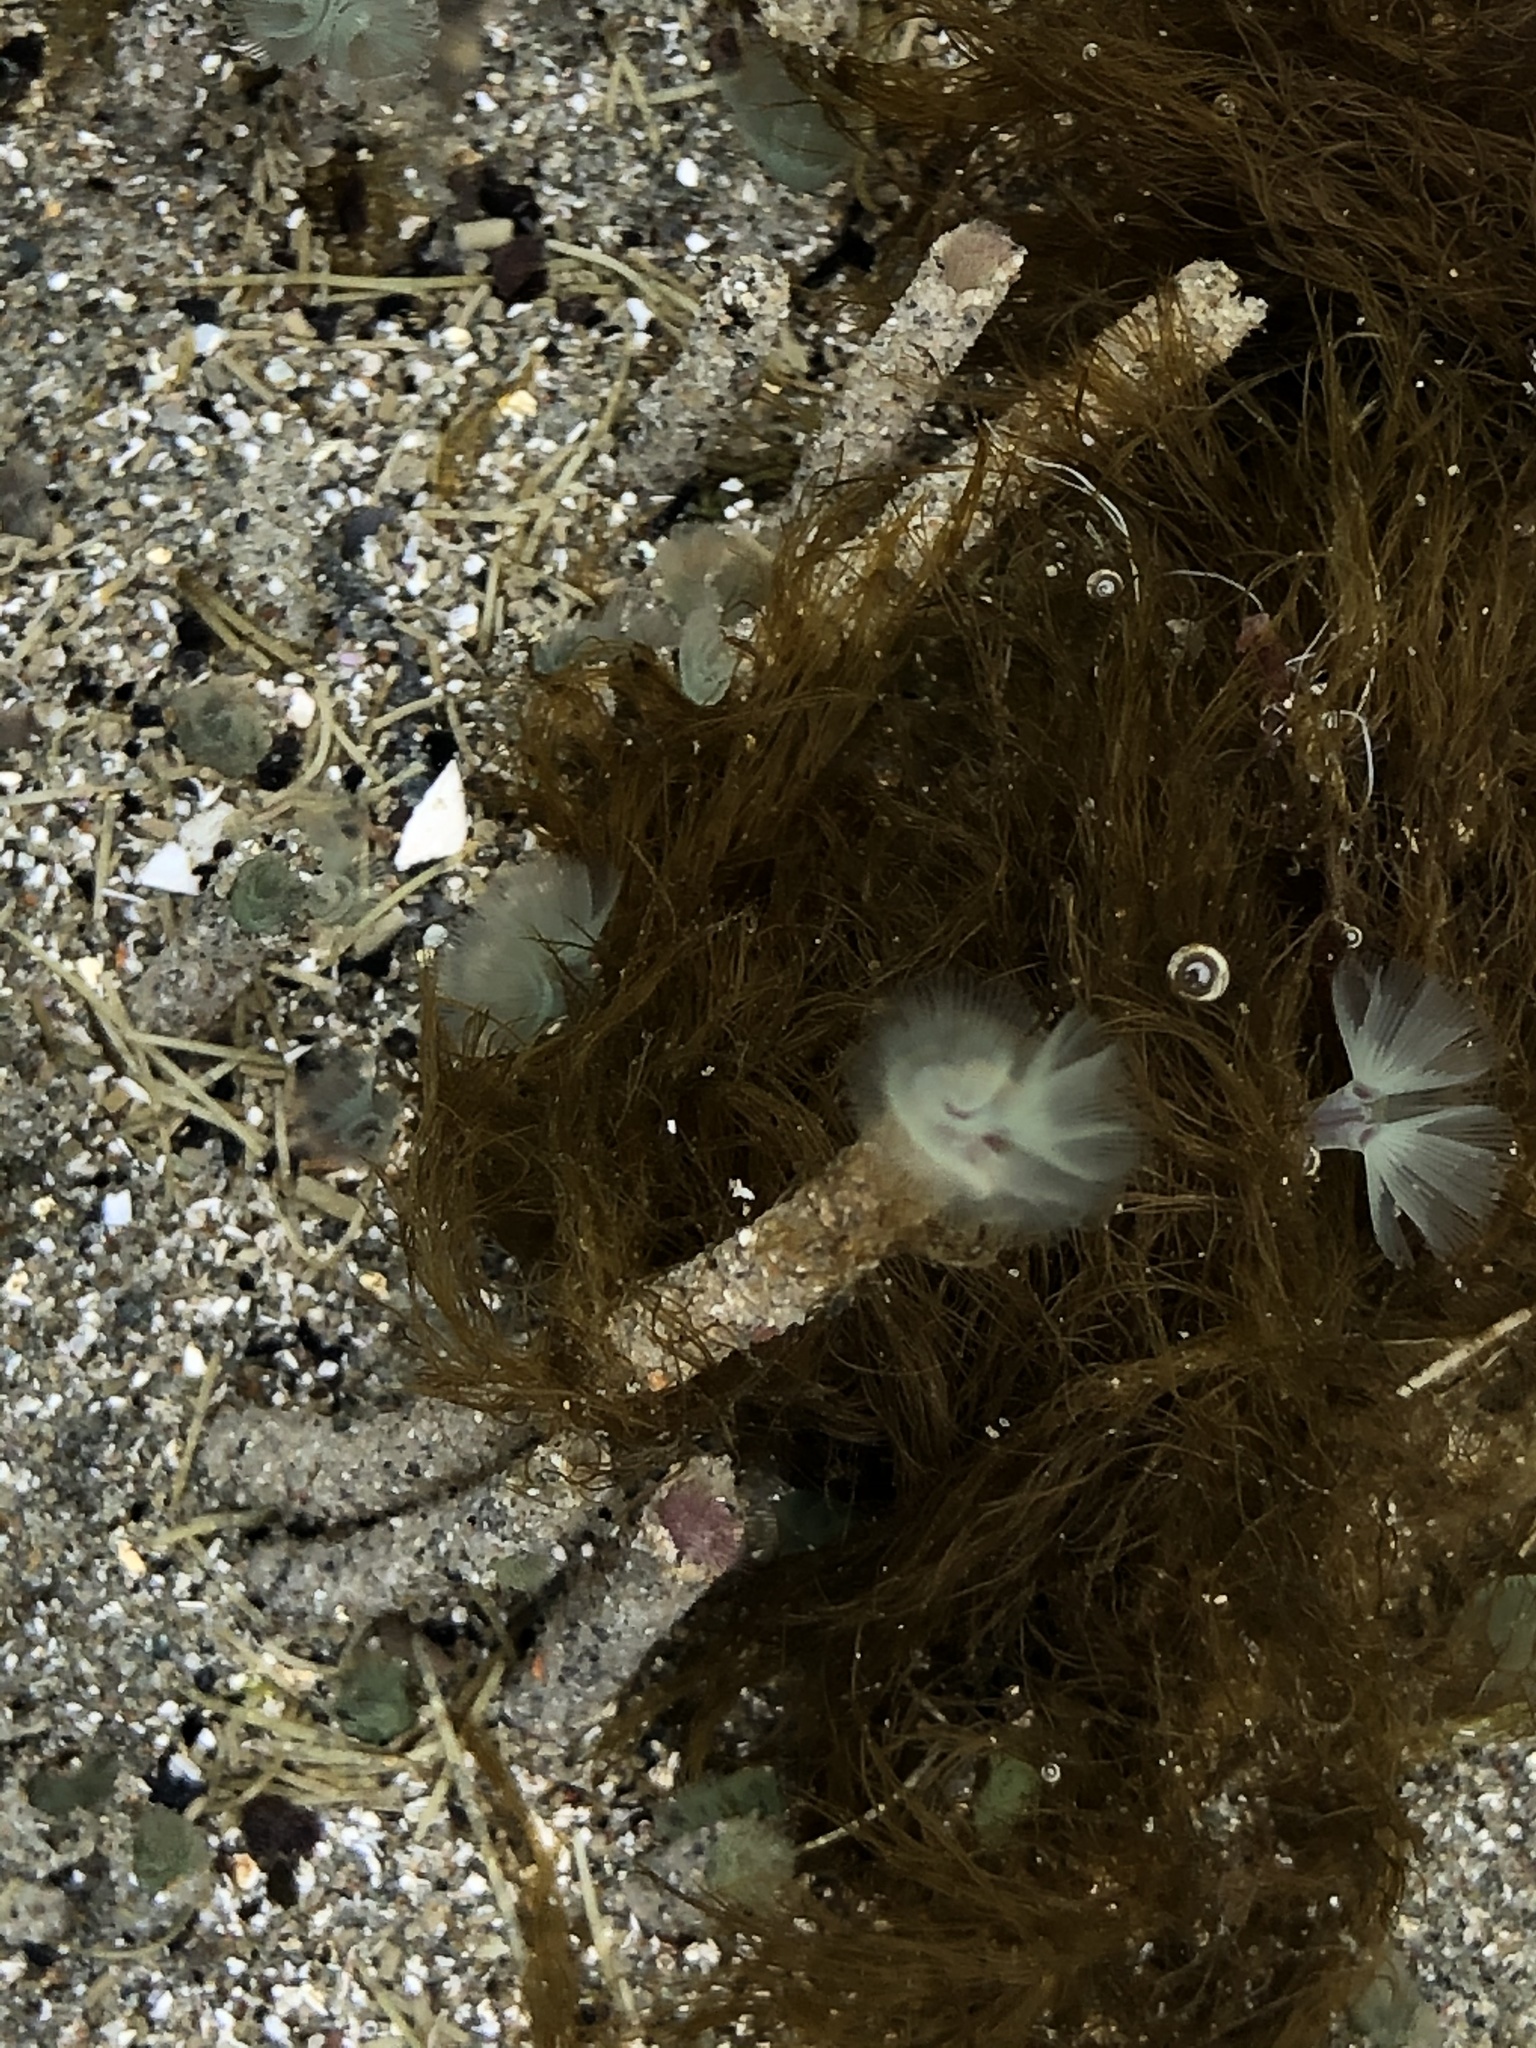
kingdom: Animalia
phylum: Phoronida
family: Phoronidae
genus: Phoronopsis
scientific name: Phoronopsis harmeri
